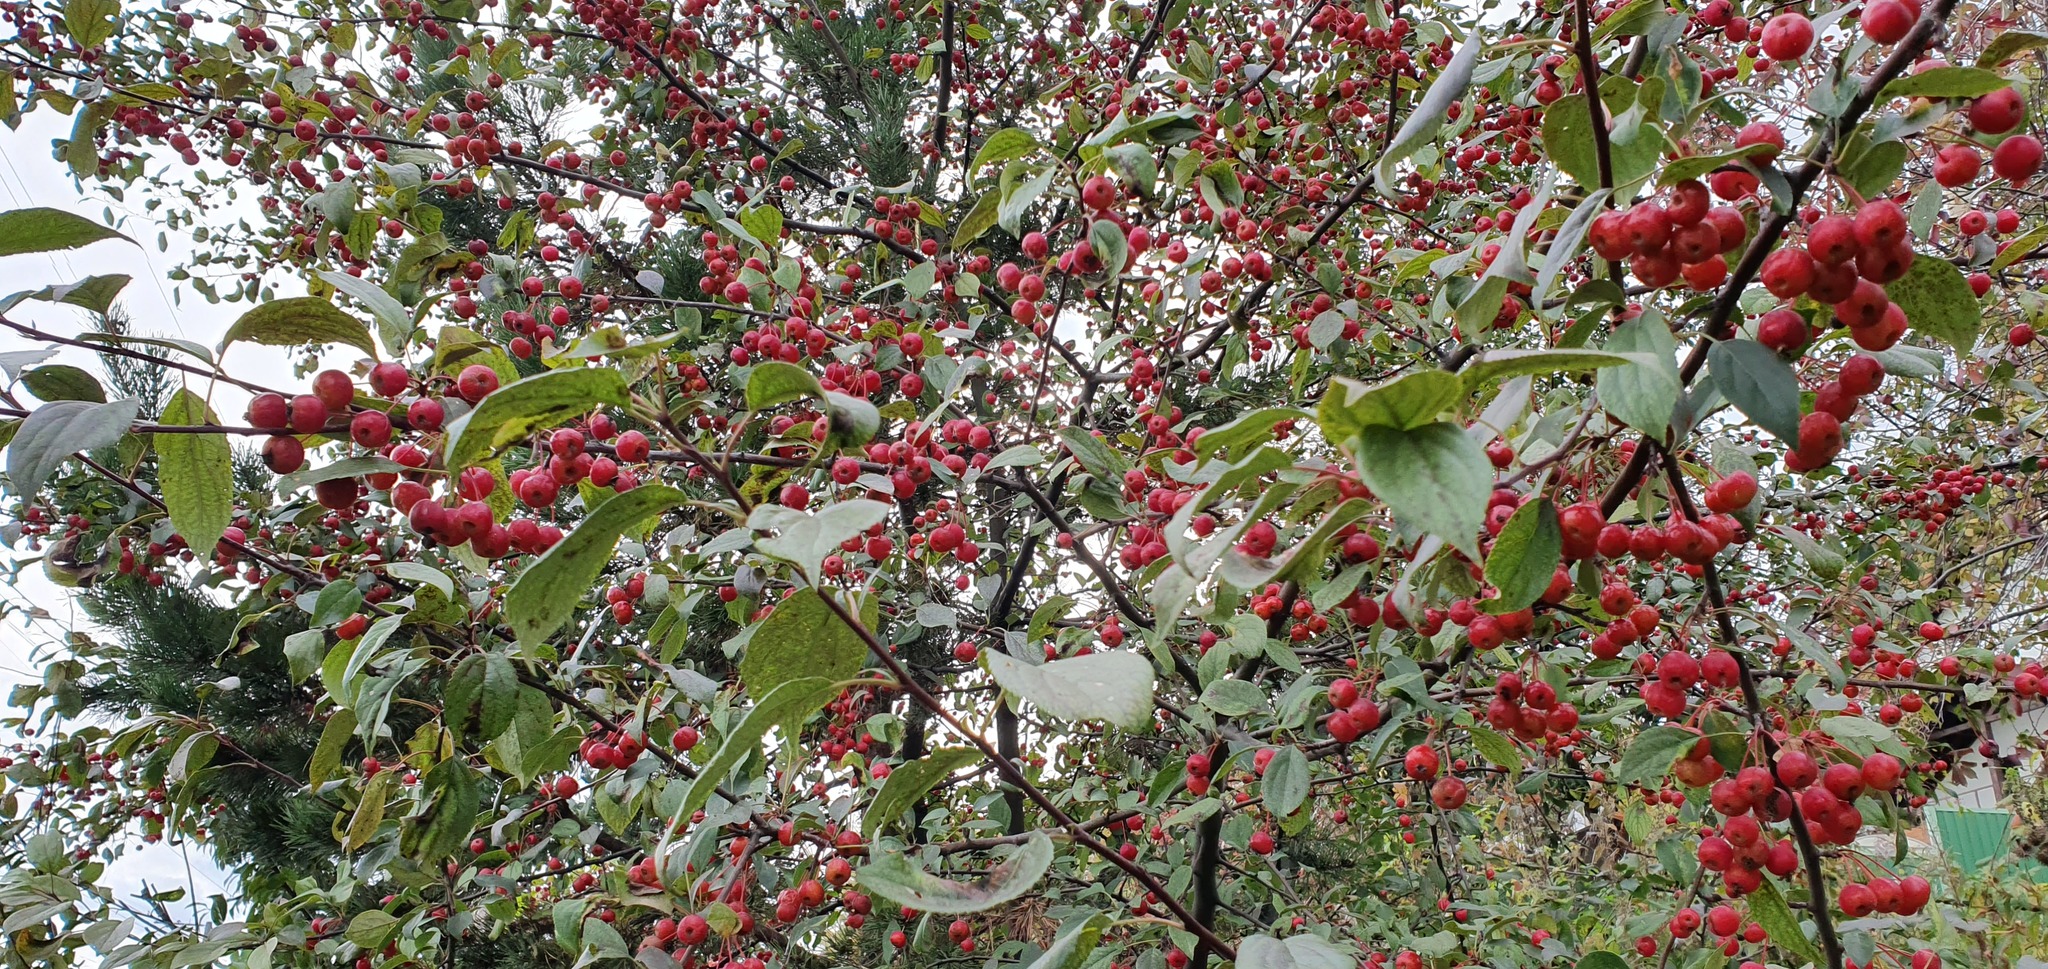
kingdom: Plantae
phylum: Tracheophyta
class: Magnoliopsida
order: Rosales
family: Rosaceae
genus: Malus
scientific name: Malus baccata
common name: Siberian crab
